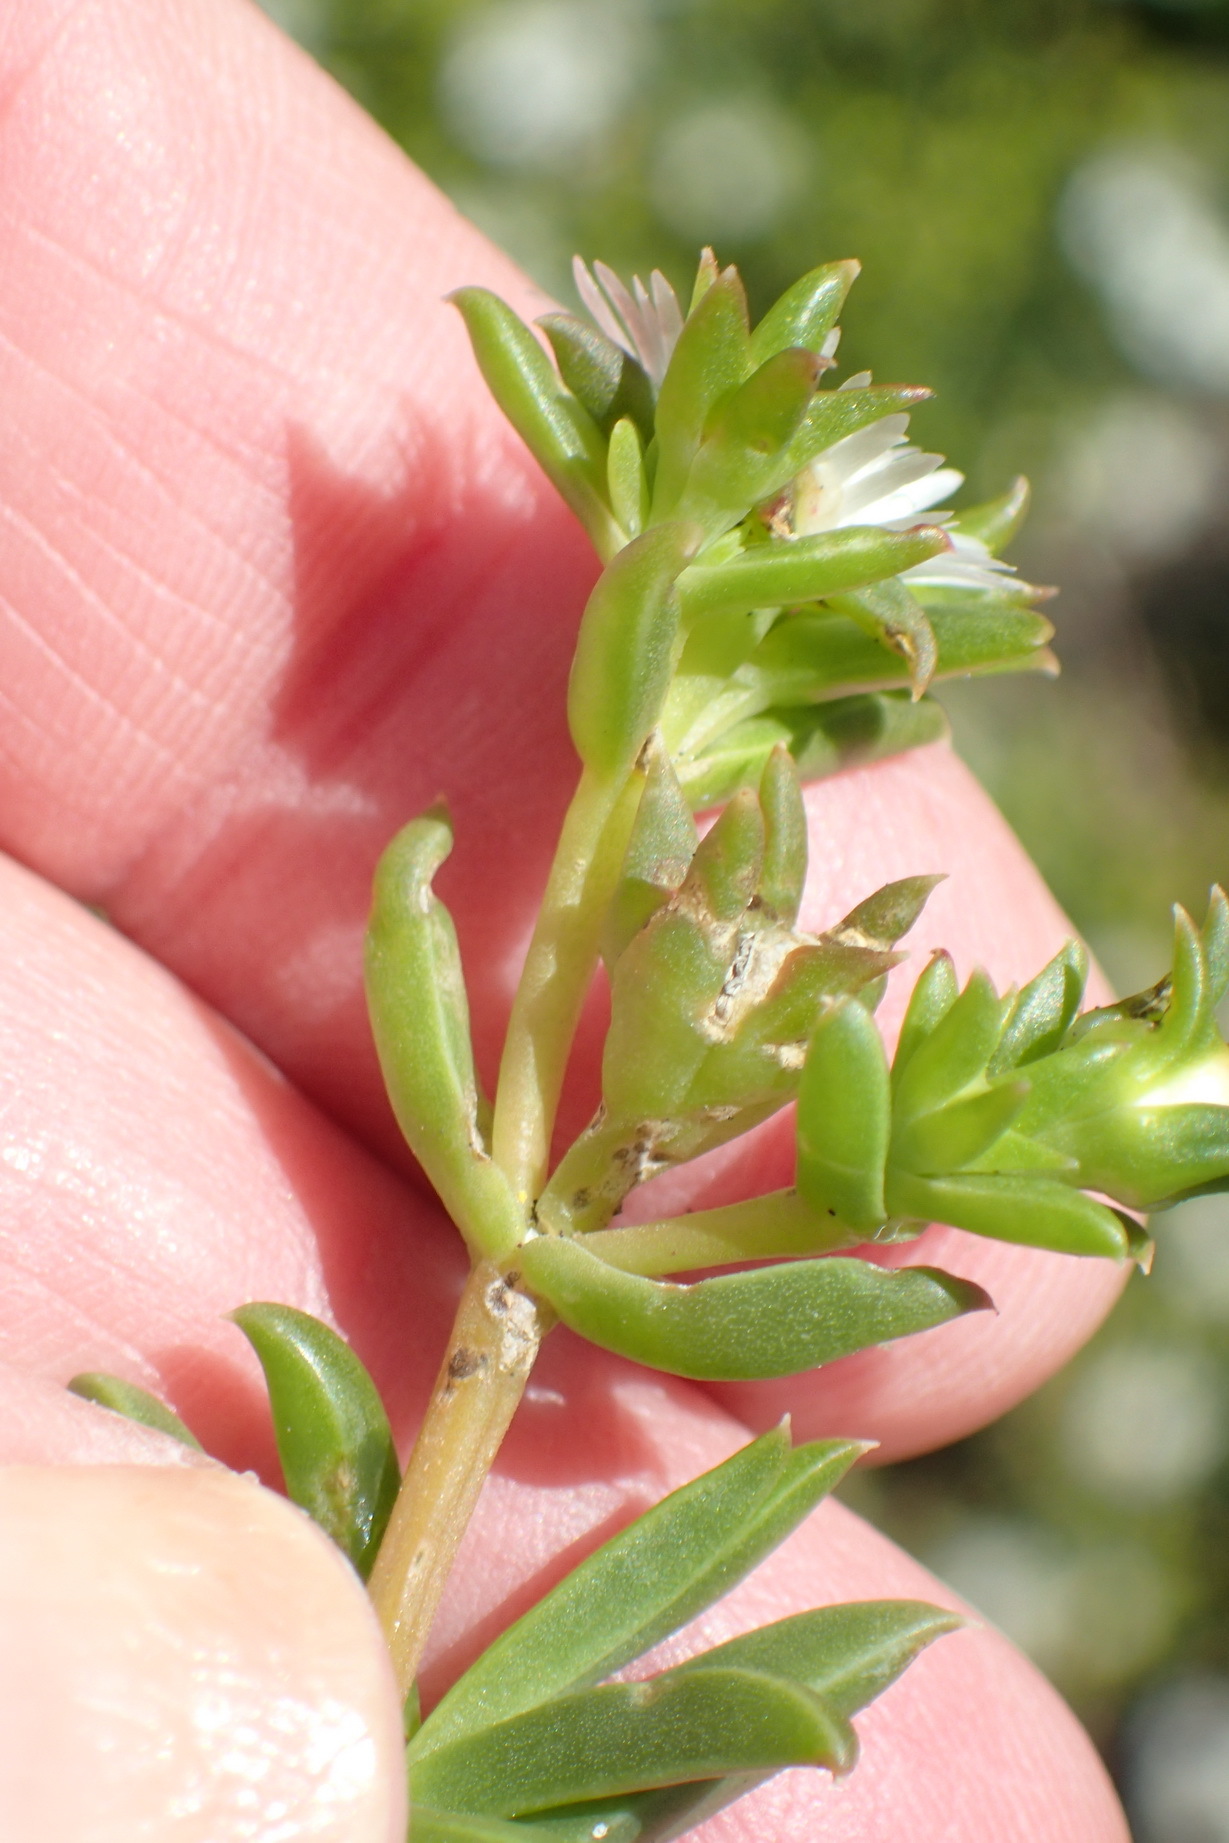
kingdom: Plantae
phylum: Tracheophyta
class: Magnoliopsida
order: Caryophyllales
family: Aizoaceae
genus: Delosperma
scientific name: Delosperma inconspicuum
